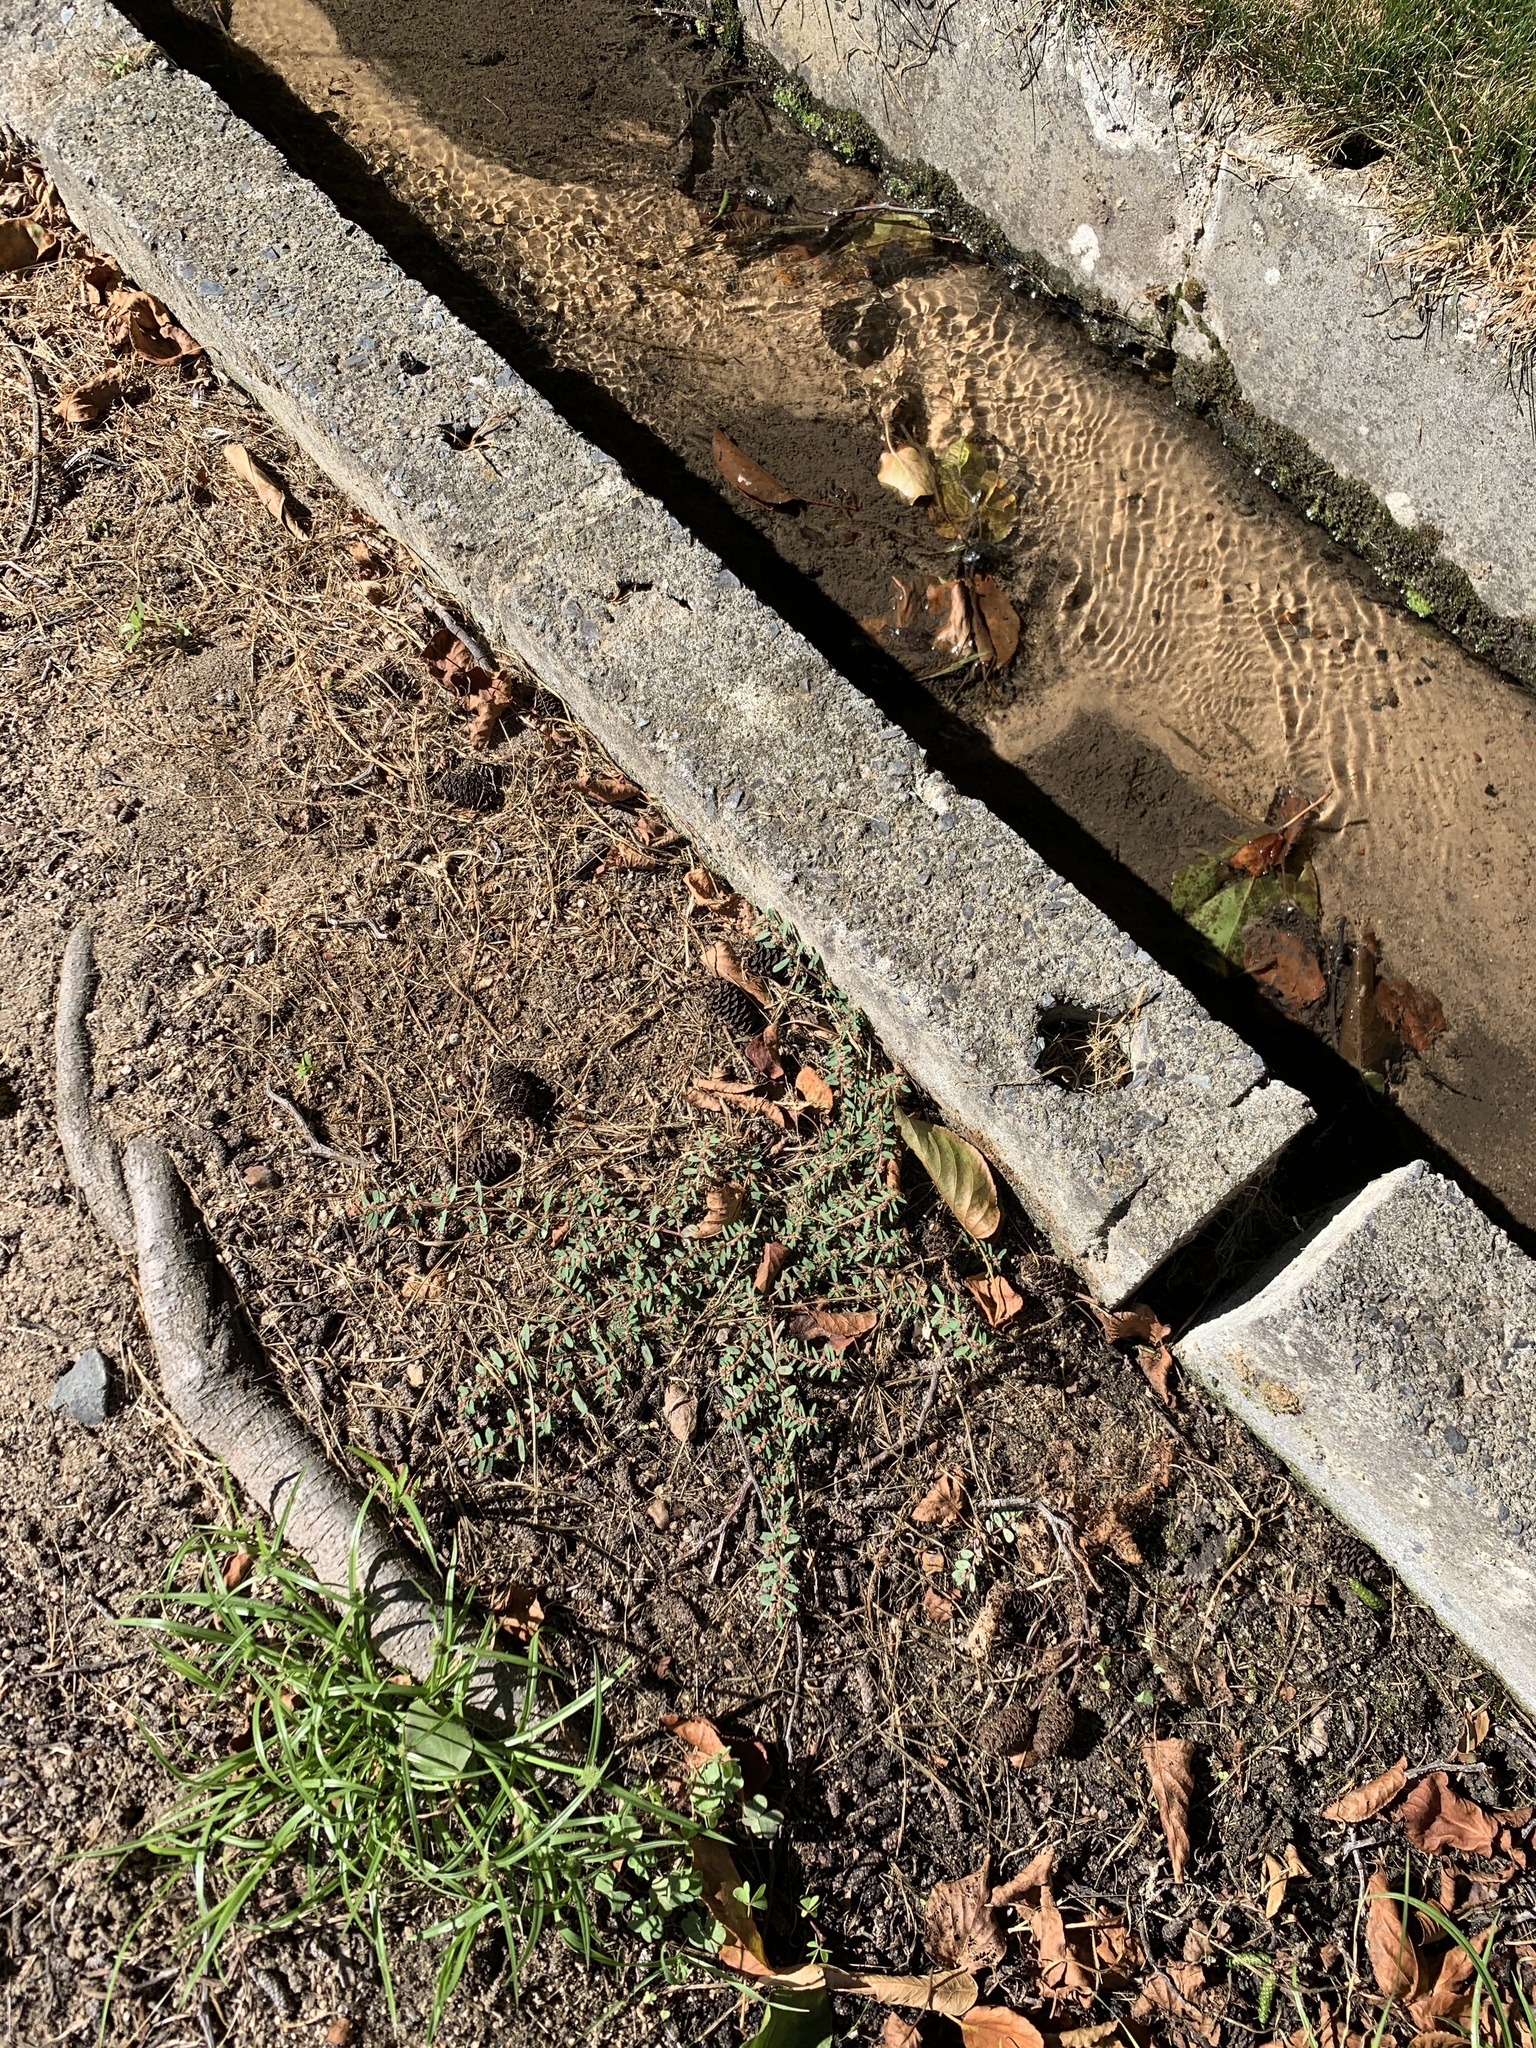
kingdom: Plantae
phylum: Tracheophyta
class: Magnoliopsida
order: Malpighiales
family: Euphorbiaceae
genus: Euphorbia
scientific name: Euphorbia maculata
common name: Spotted spurge
